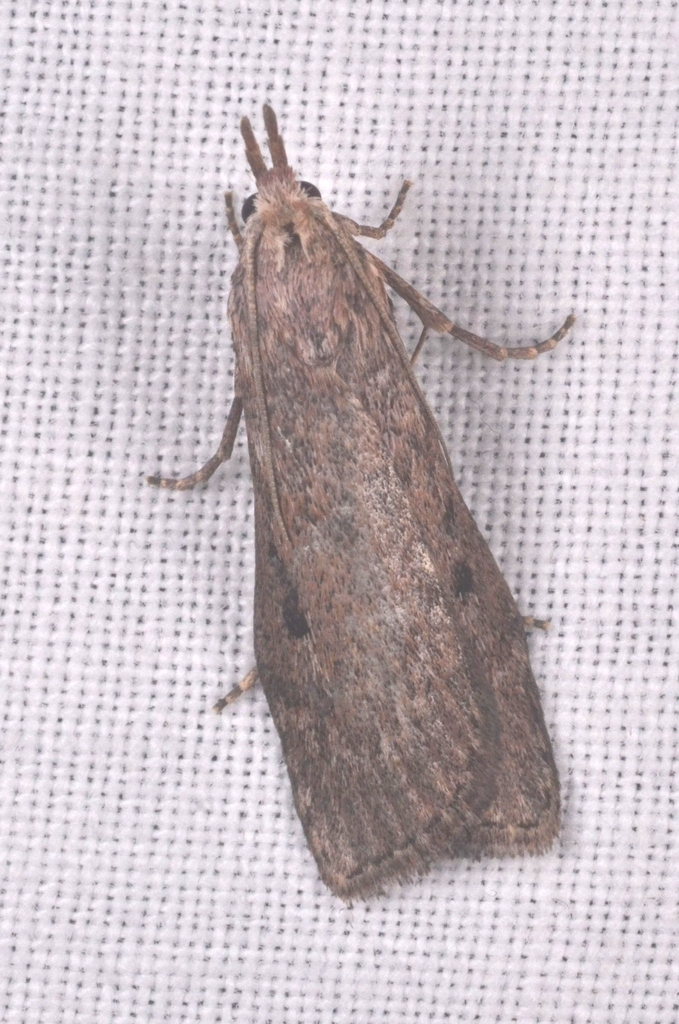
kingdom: Animalia
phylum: Arthropoda
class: Insecta
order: Lepidoptera
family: Pyralidae
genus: Aphomia
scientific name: Aphomia sociella
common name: Bee moth
